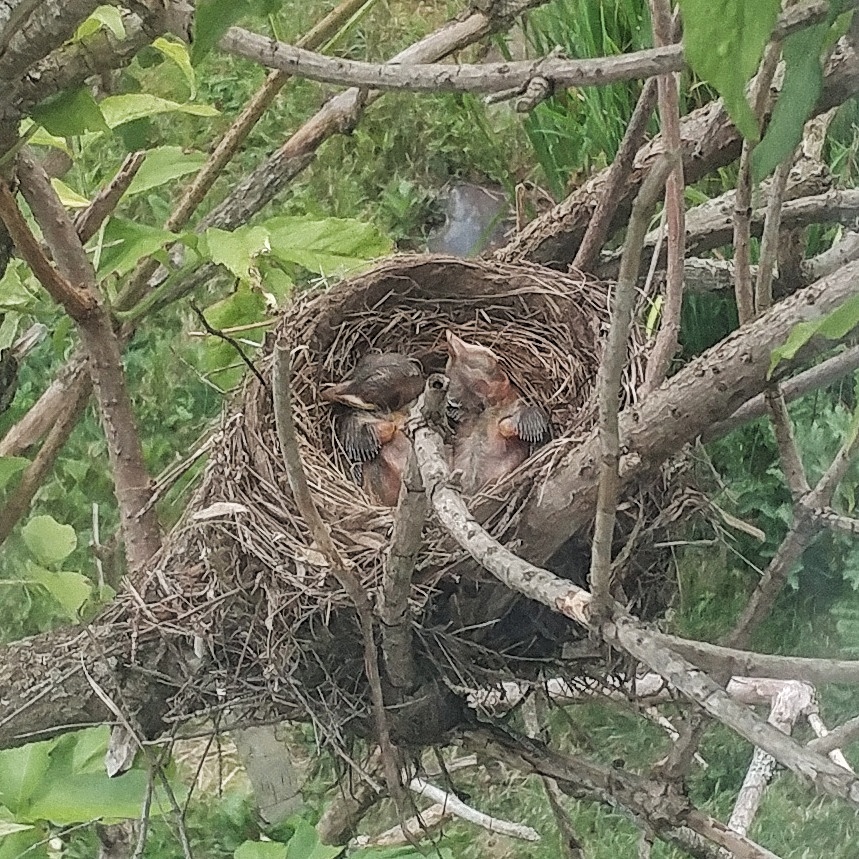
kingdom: Animalia
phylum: Chordata
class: Aves
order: Passeriformes
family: Turdidae
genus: Turdus
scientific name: Turdus migratorius
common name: American robin
